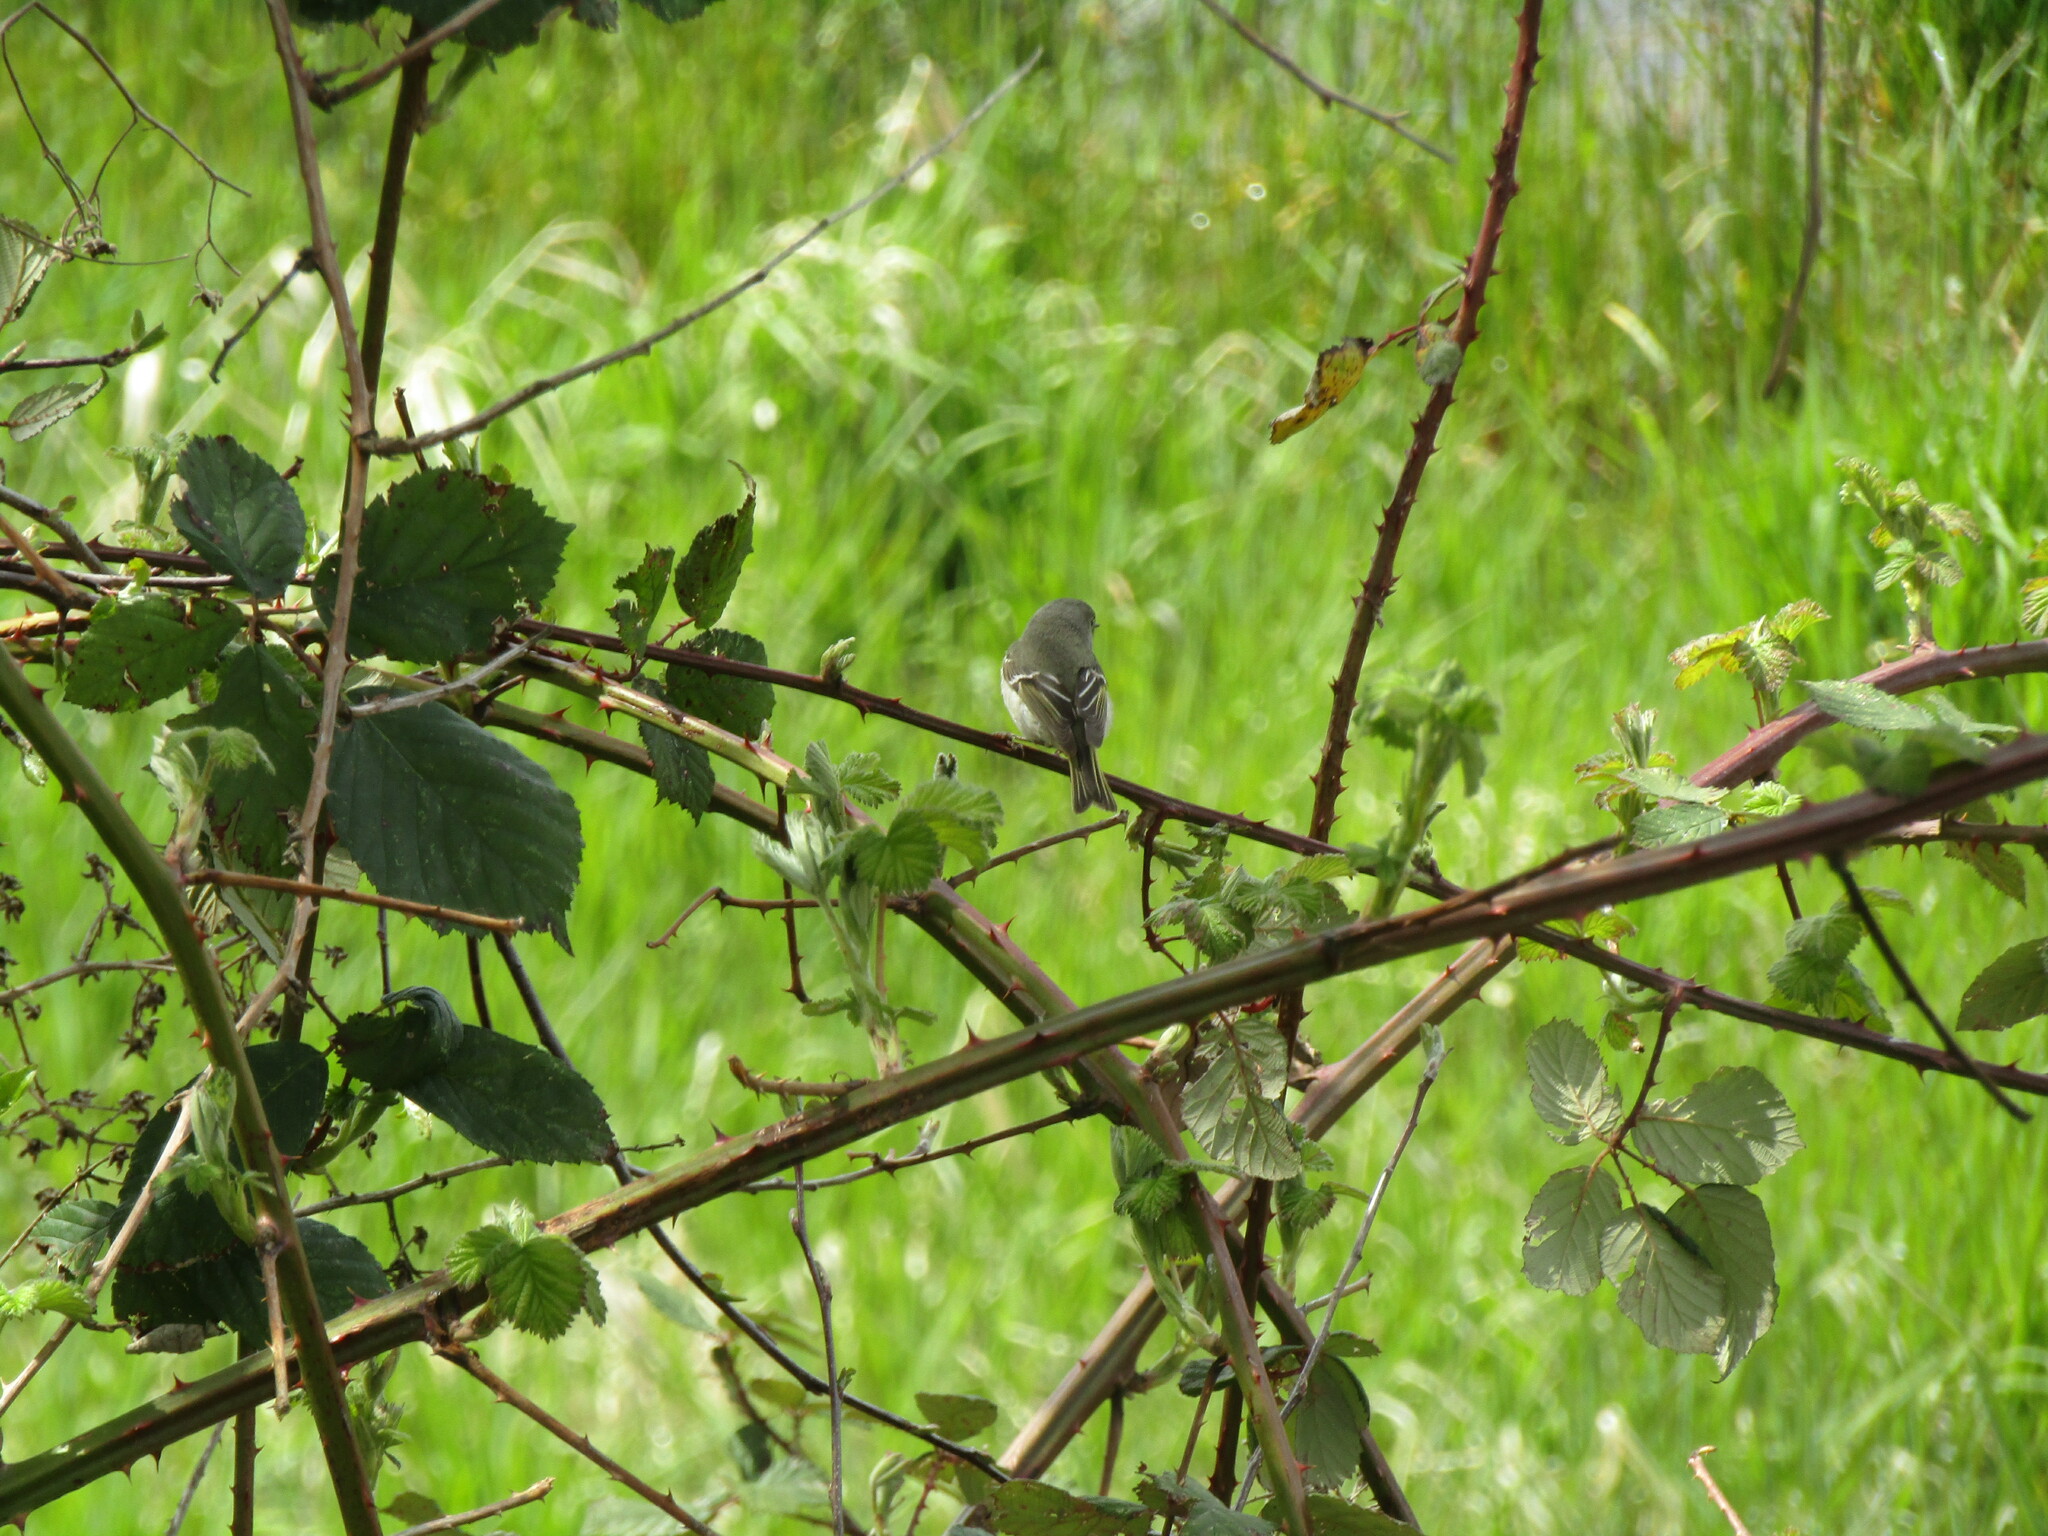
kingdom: Animalia
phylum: Chordata
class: Aves
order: Passeriformes
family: Regulidae
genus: Regulus
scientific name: Regulus calendula
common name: Ruby-crowned kinglet
